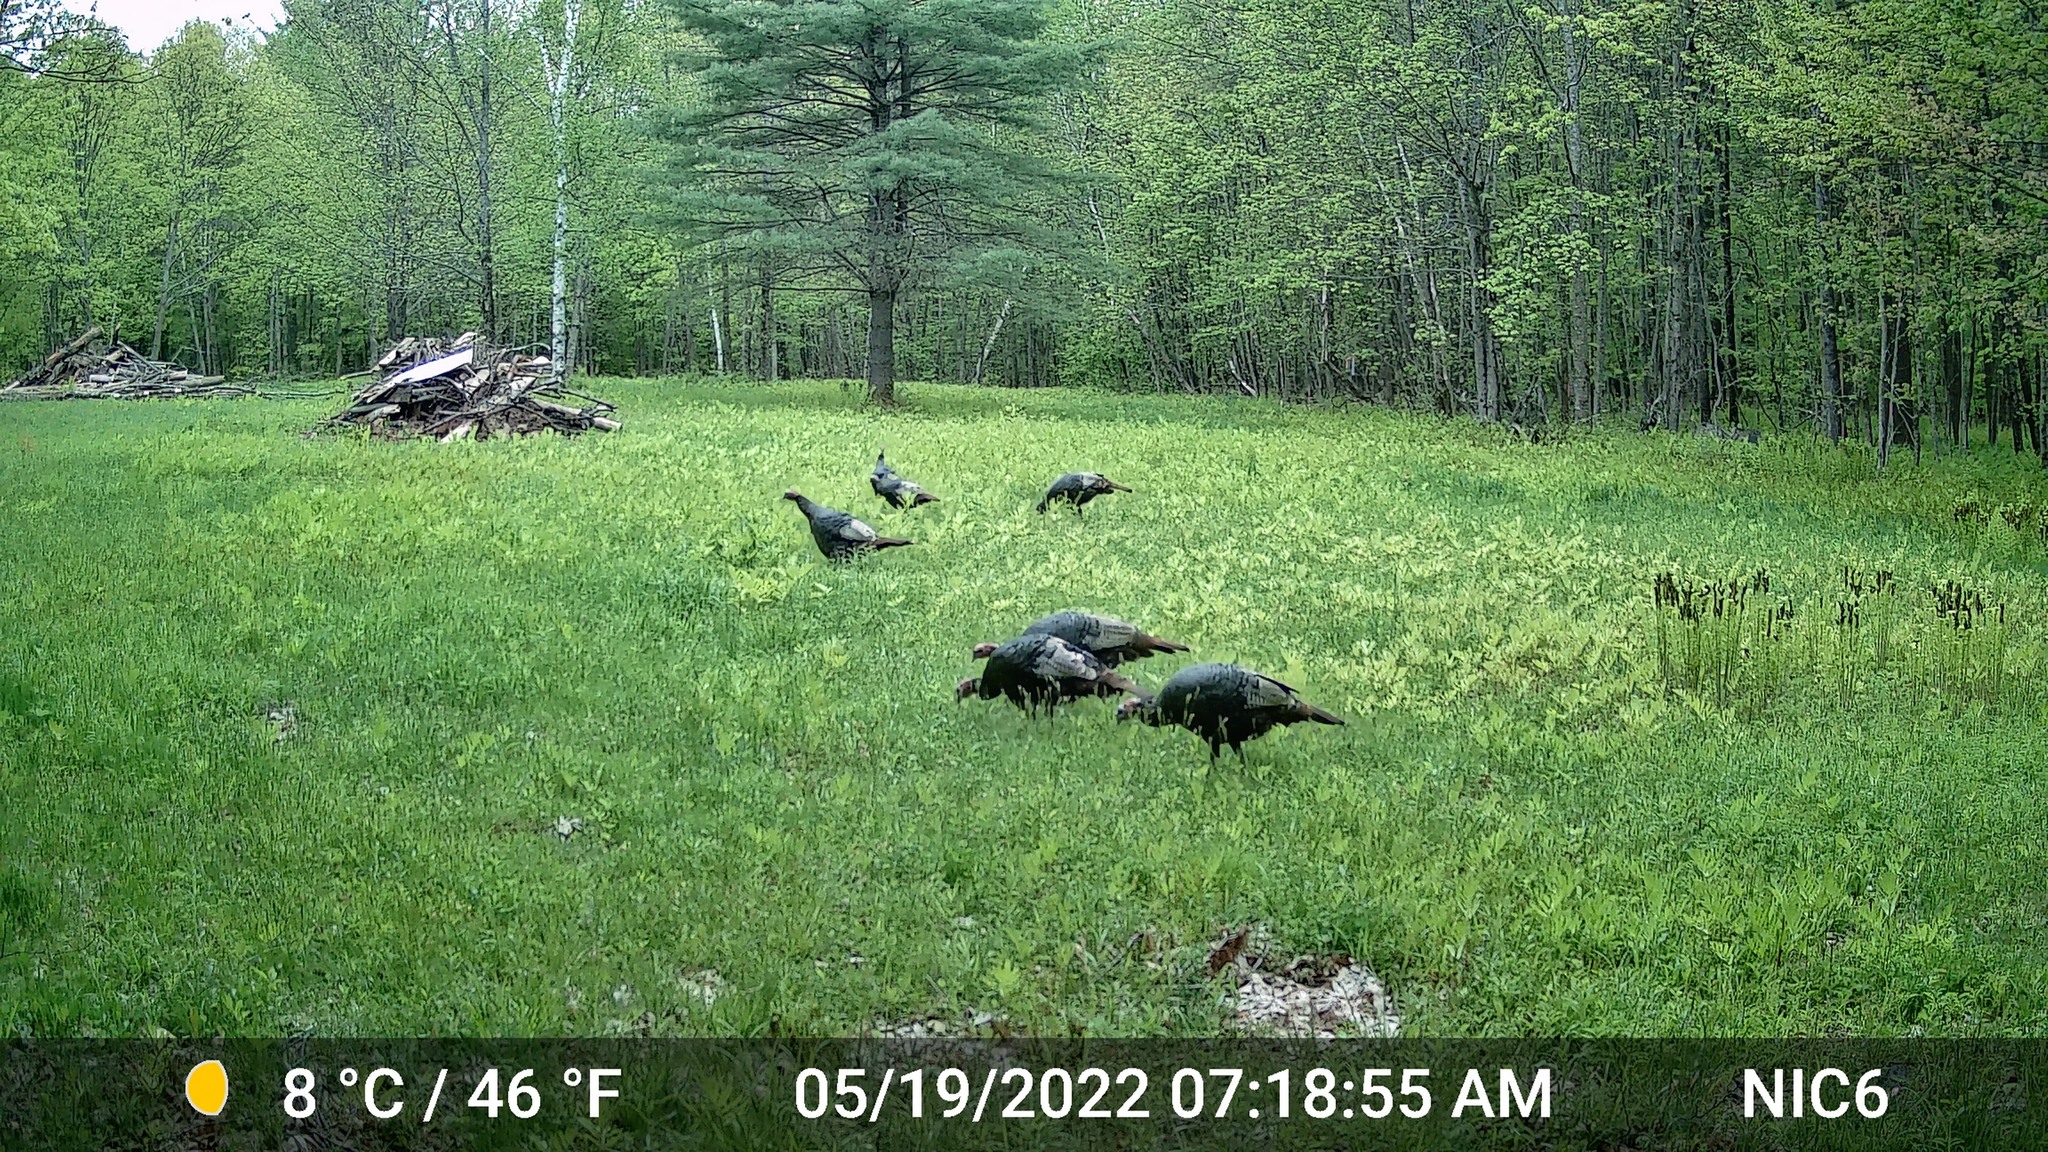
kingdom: Animalia
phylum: Chordata
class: Aves
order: Galliformes
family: Phasianidae
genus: Meleagris
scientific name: Meleagris gallopavo
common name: Wild turkey
